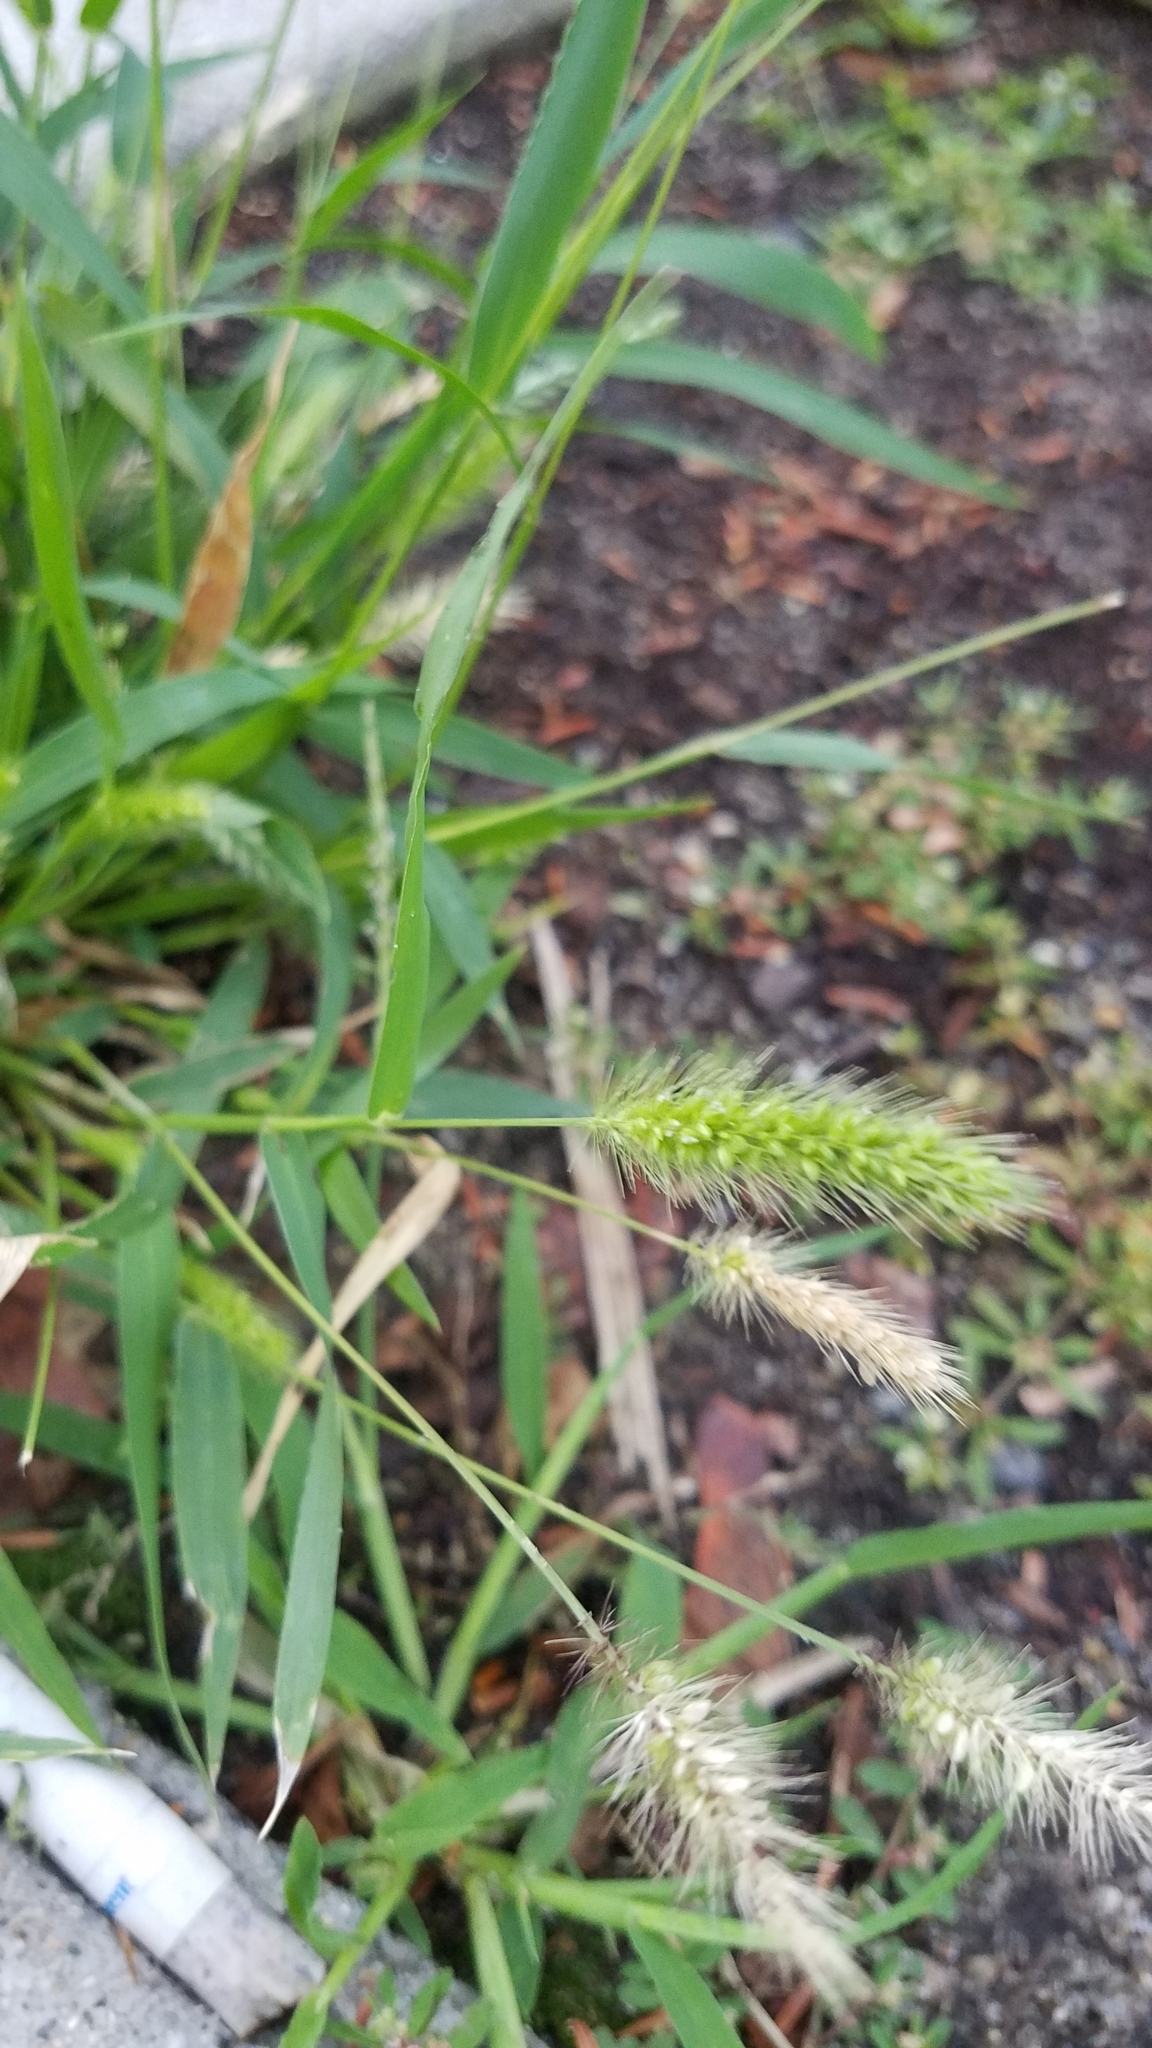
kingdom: Plantae
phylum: Tracheophyta
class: Liliopsida
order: Poales
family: Poaceae
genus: Setaria
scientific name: Setaria viridis
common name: Green bristlegrass
